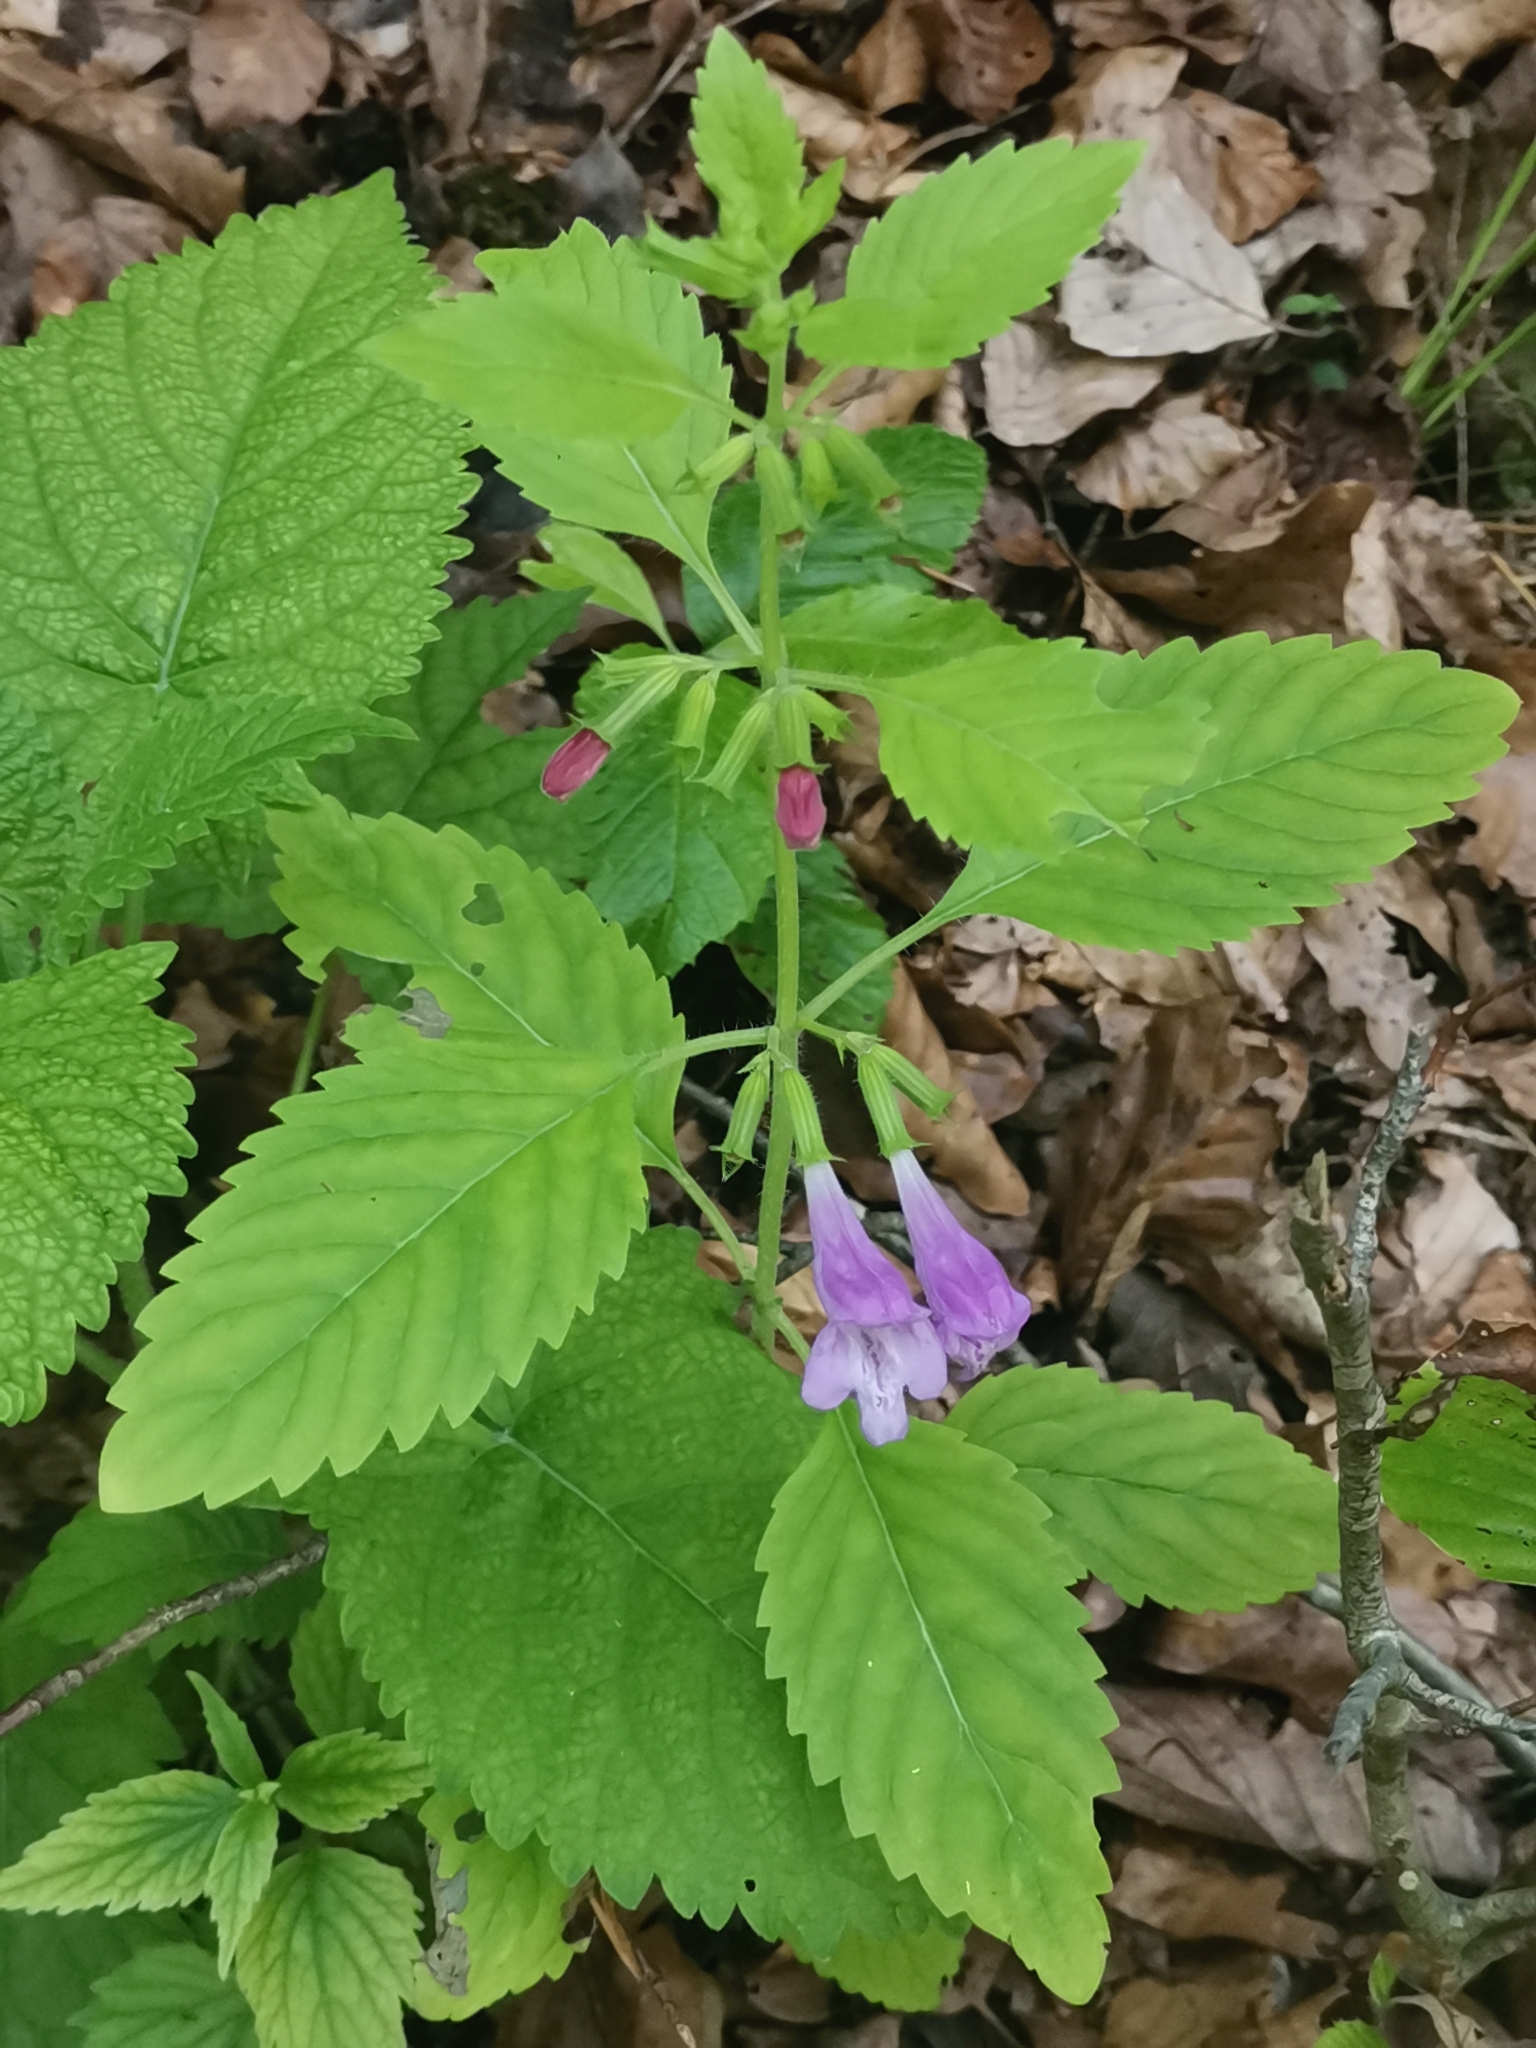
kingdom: Plantae
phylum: Tracheophyta
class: Magnoliopsida
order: Lamiales
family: Lamiaceae
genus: Clinopodium
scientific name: Clinopodium grandiflorum
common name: Greater calamint
